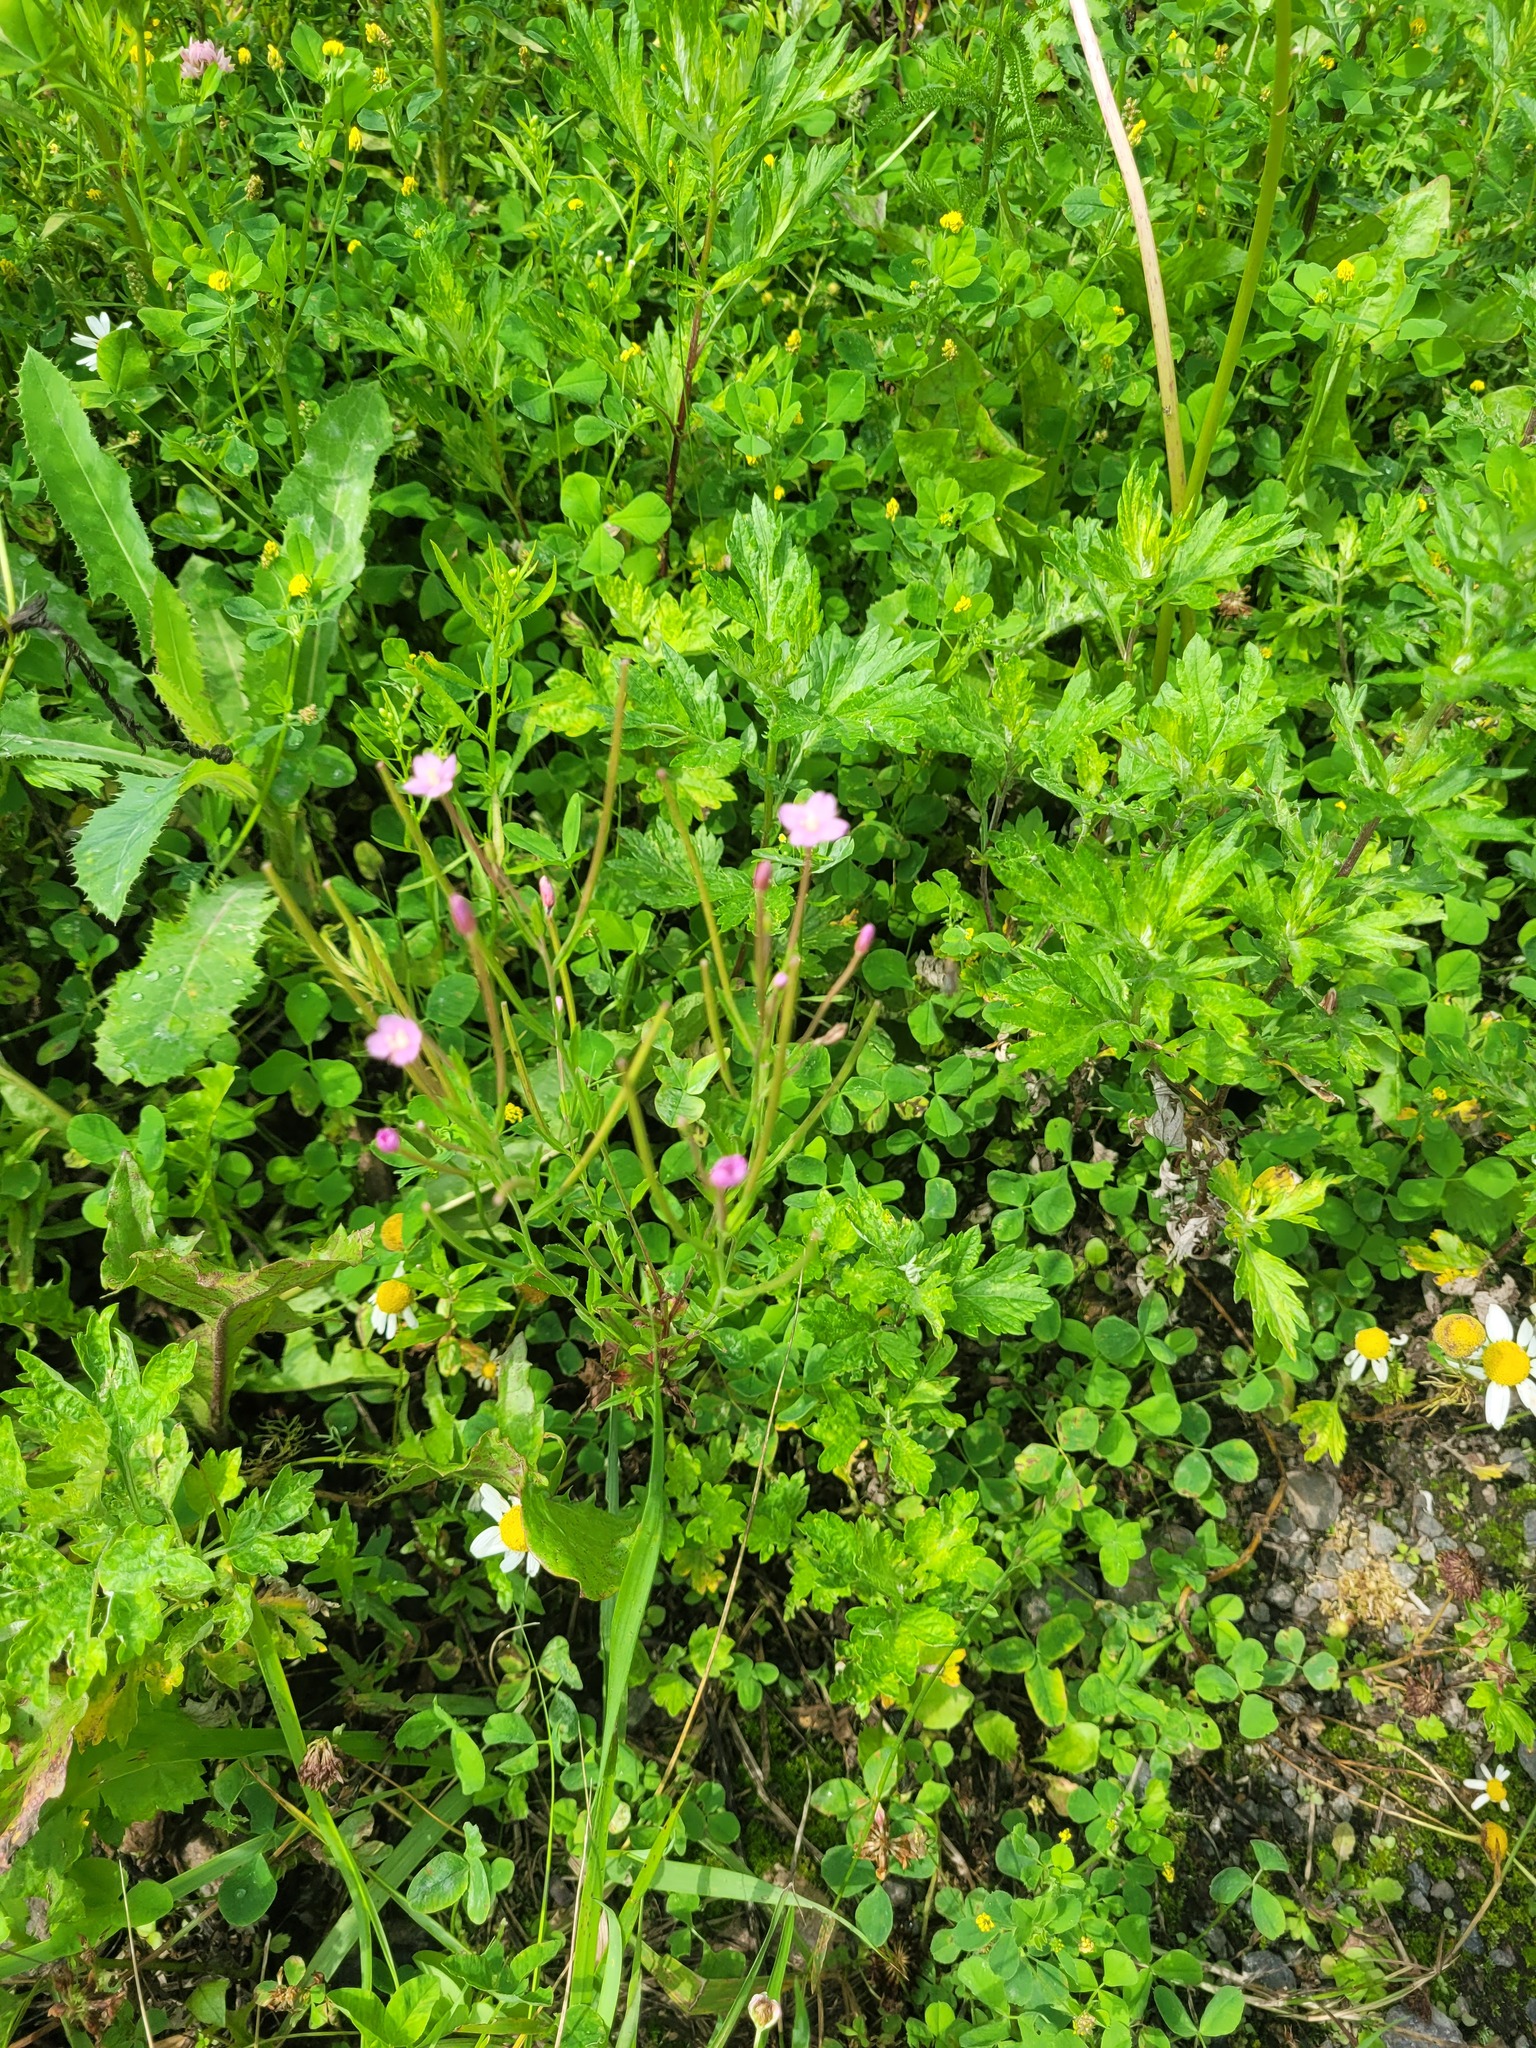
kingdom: Plantae
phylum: Tracheophyta
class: Magnoliopsida
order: Myrtales
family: Onagraceae
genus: Epilobium
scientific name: Epilobium lamyi
